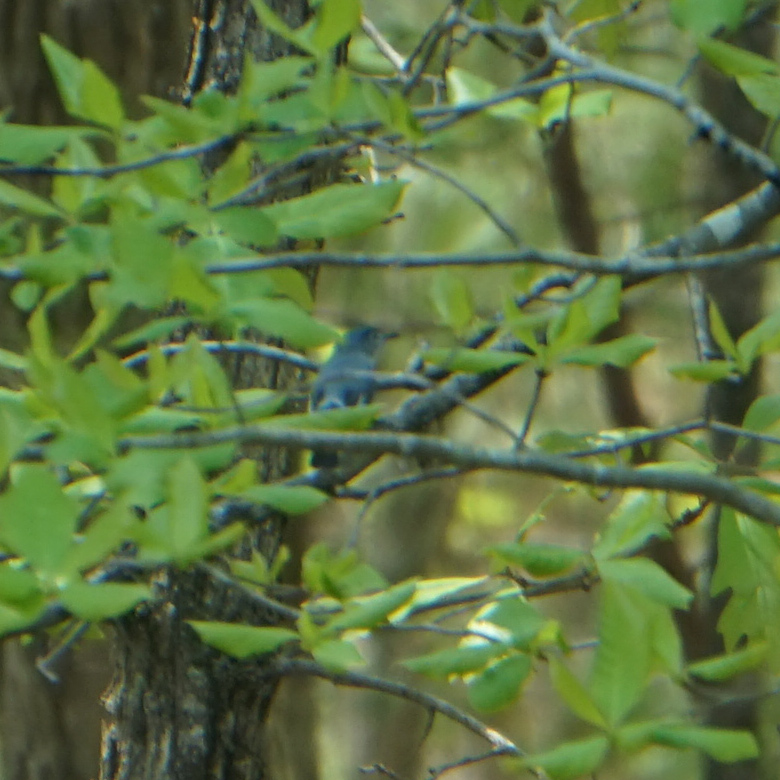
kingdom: Animalia
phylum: Chordata
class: Aves
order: Passeriformes
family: Polioptilidae
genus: Polioptila
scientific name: Polioptila caerulea
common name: Blue-gray gnatcatcher
